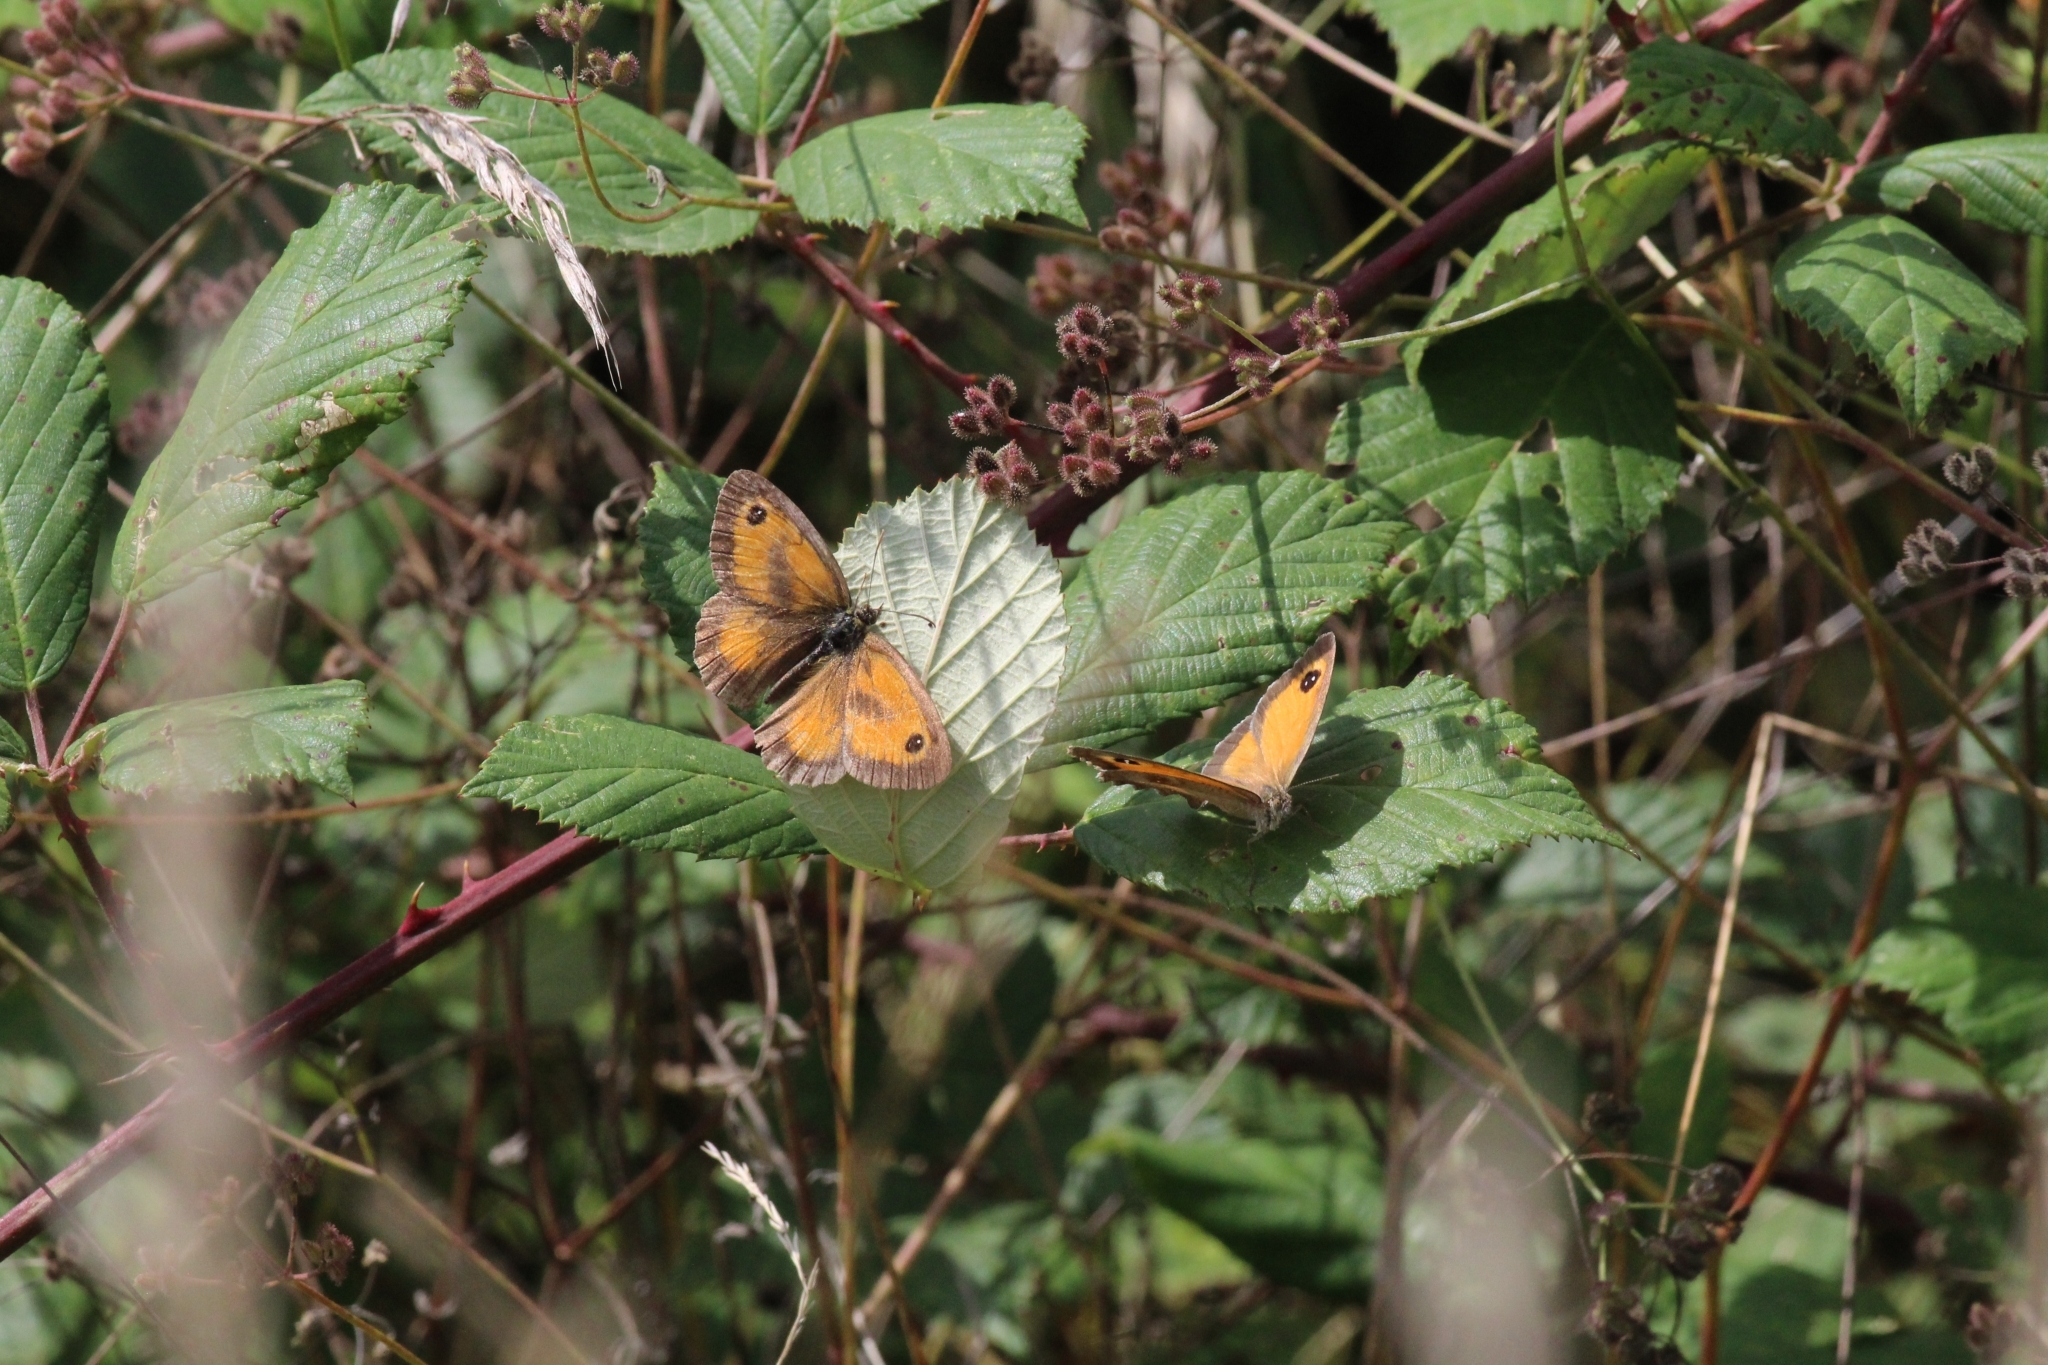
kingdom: Animalia
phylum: Arthropoda
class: Insecta
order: Lepidoptera
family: Nymphalidae
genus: Pyronia
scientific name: Pyronia tithonus
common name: Gatekeeper
